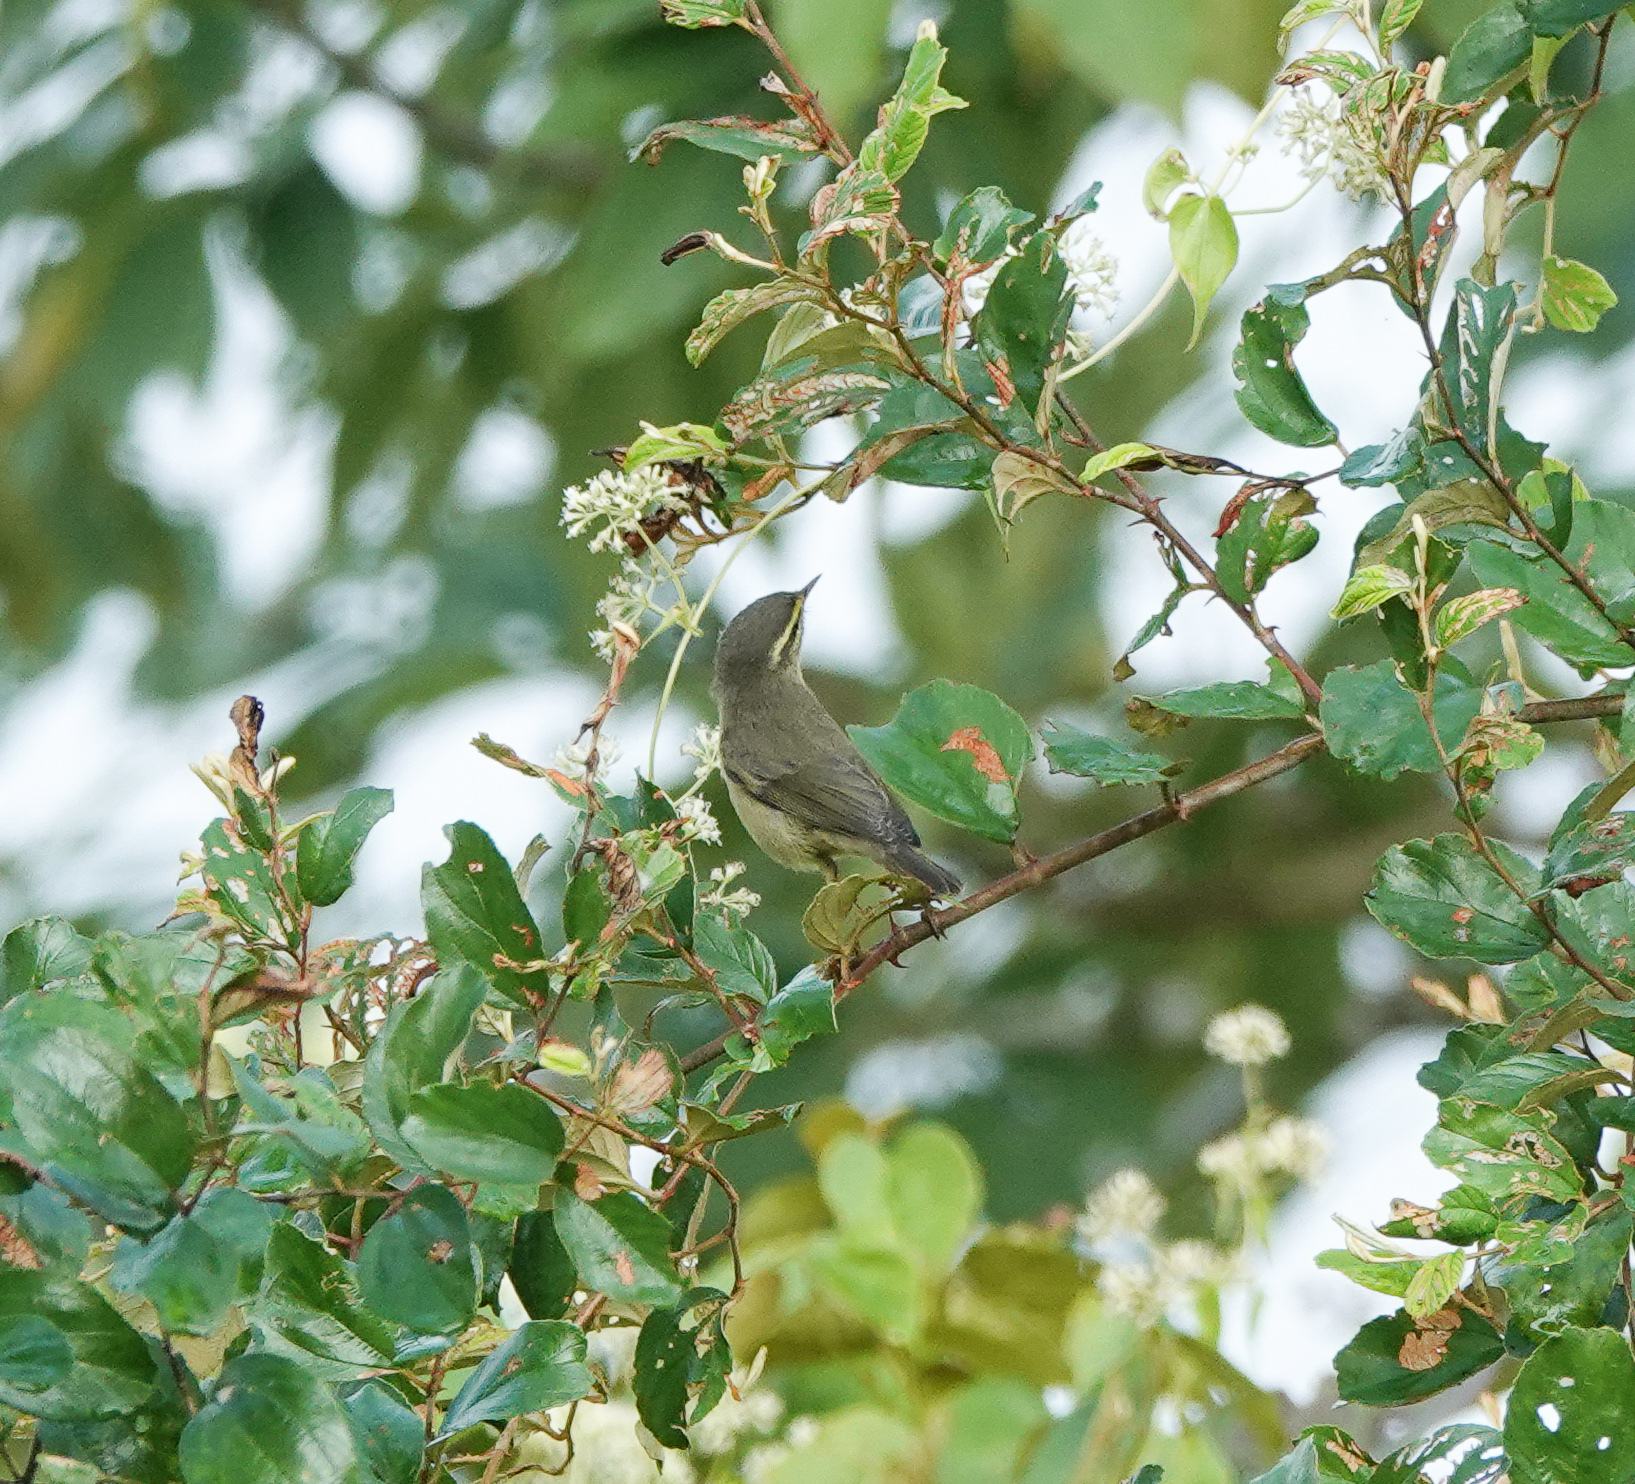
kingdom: Animalia
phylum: Chordata
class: Aves
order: Passeriformes
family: Phylloscopidae
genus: Phylloscopus
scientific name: Phylloscopus affinis
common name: Tickell's leaf warbler
